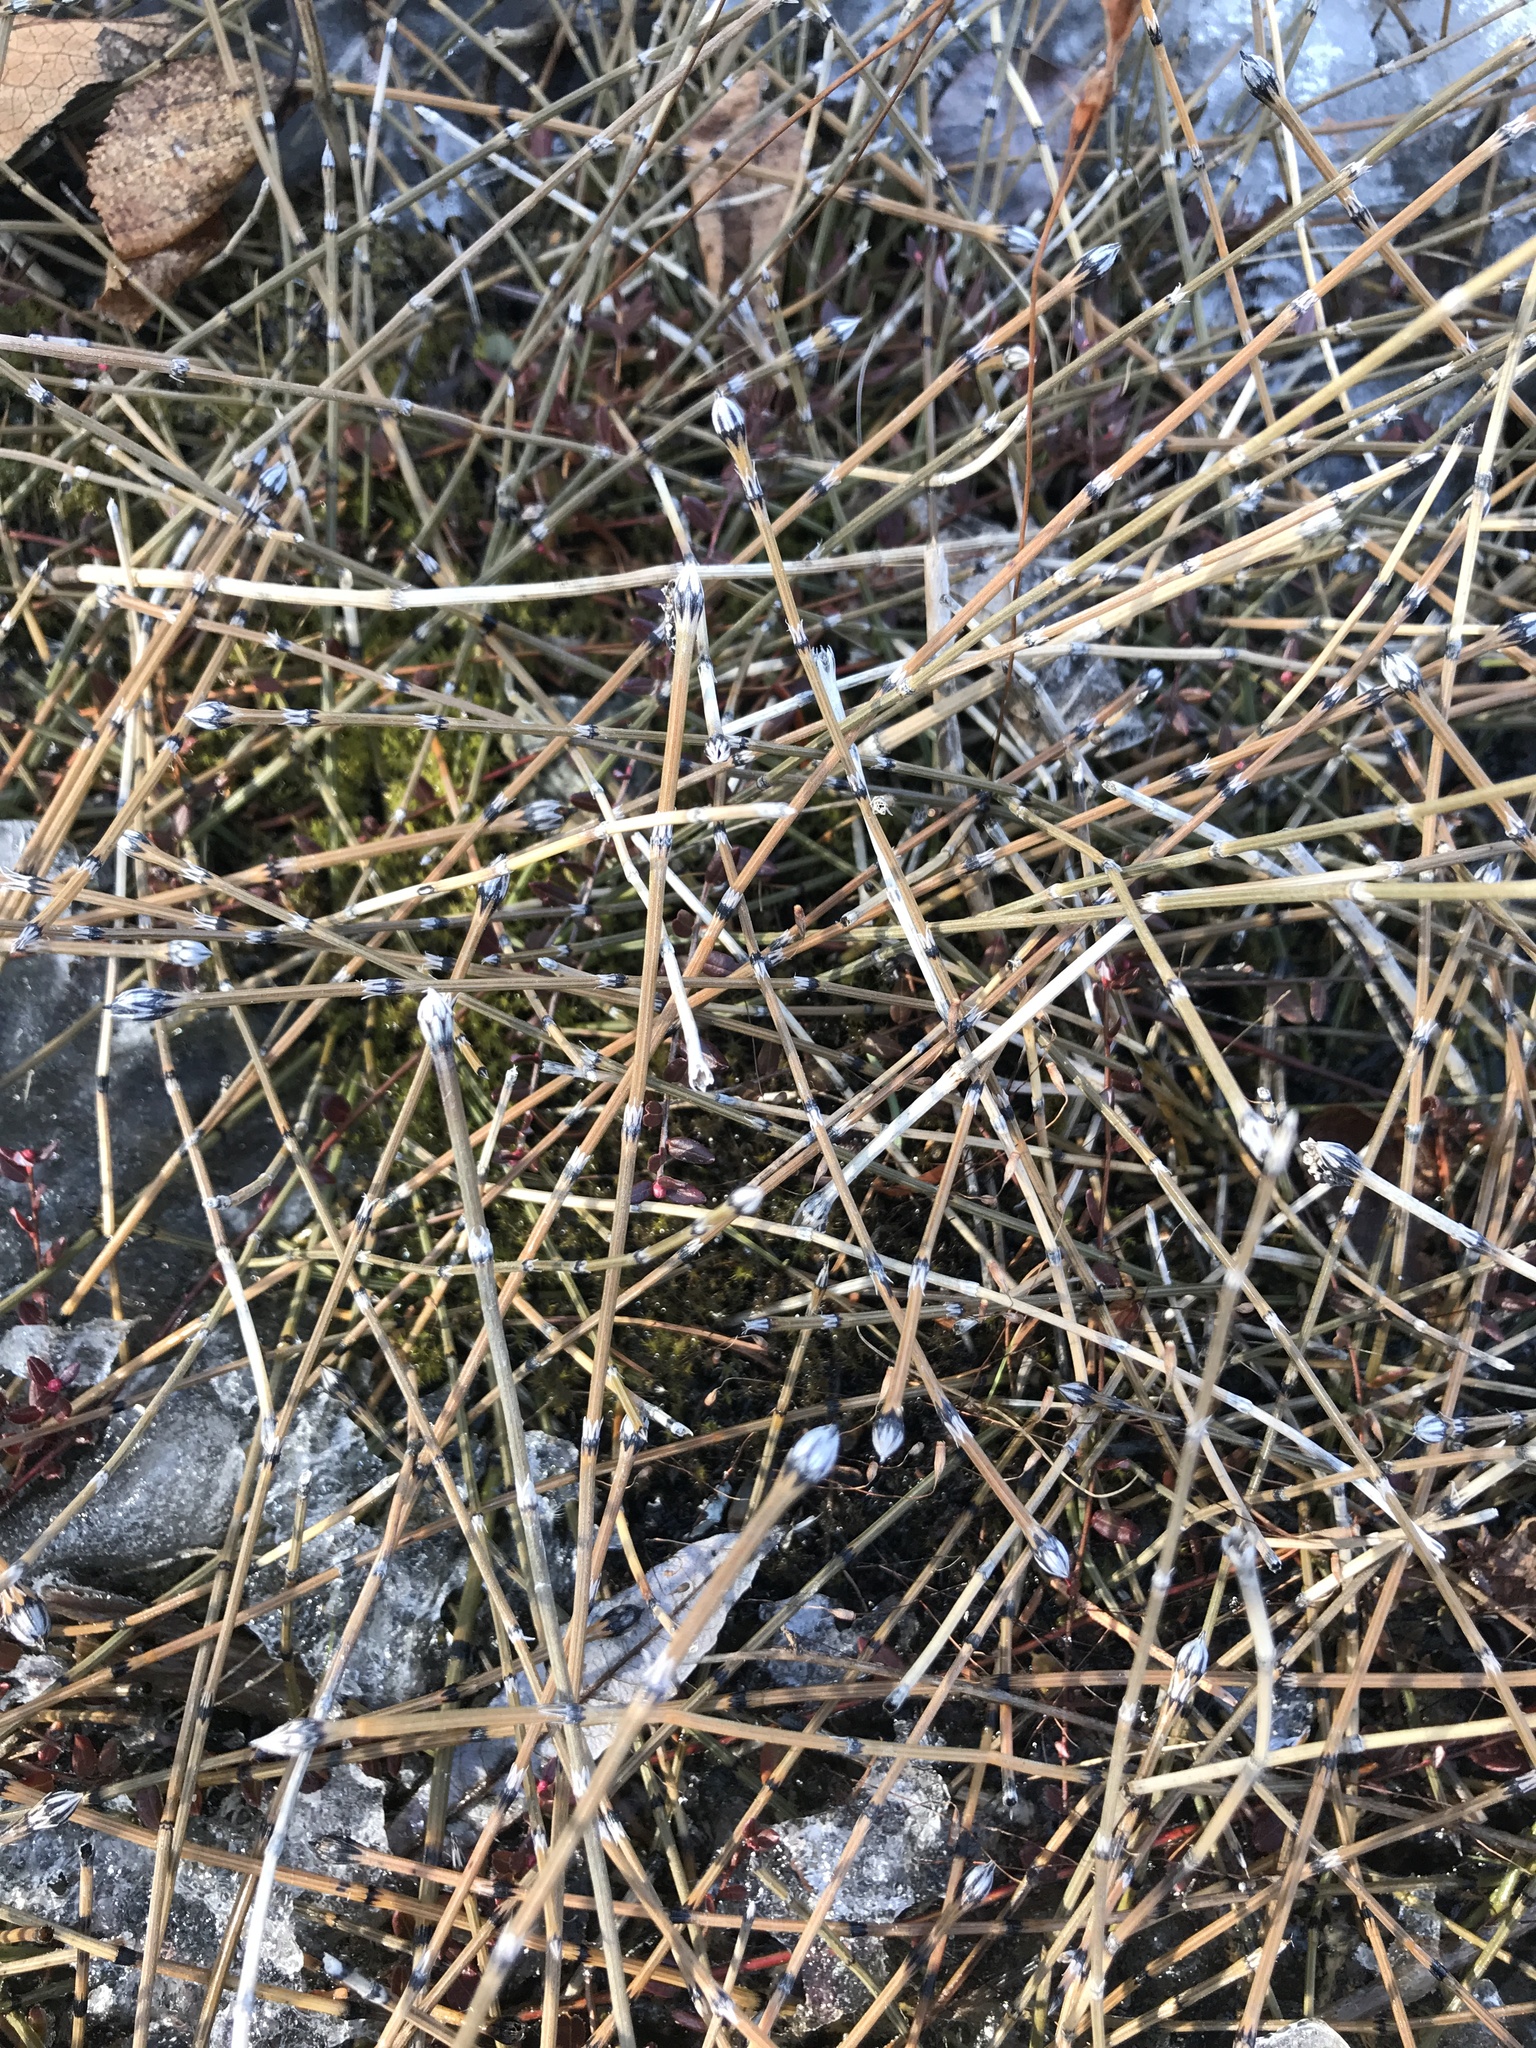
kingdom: Plantae
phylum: Tracheophyta
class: Polypodiopsida
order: Equisetales
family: Equisetaceae
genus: Equisetum
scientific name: Equisetum variegatum
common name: Variegated horsetail
